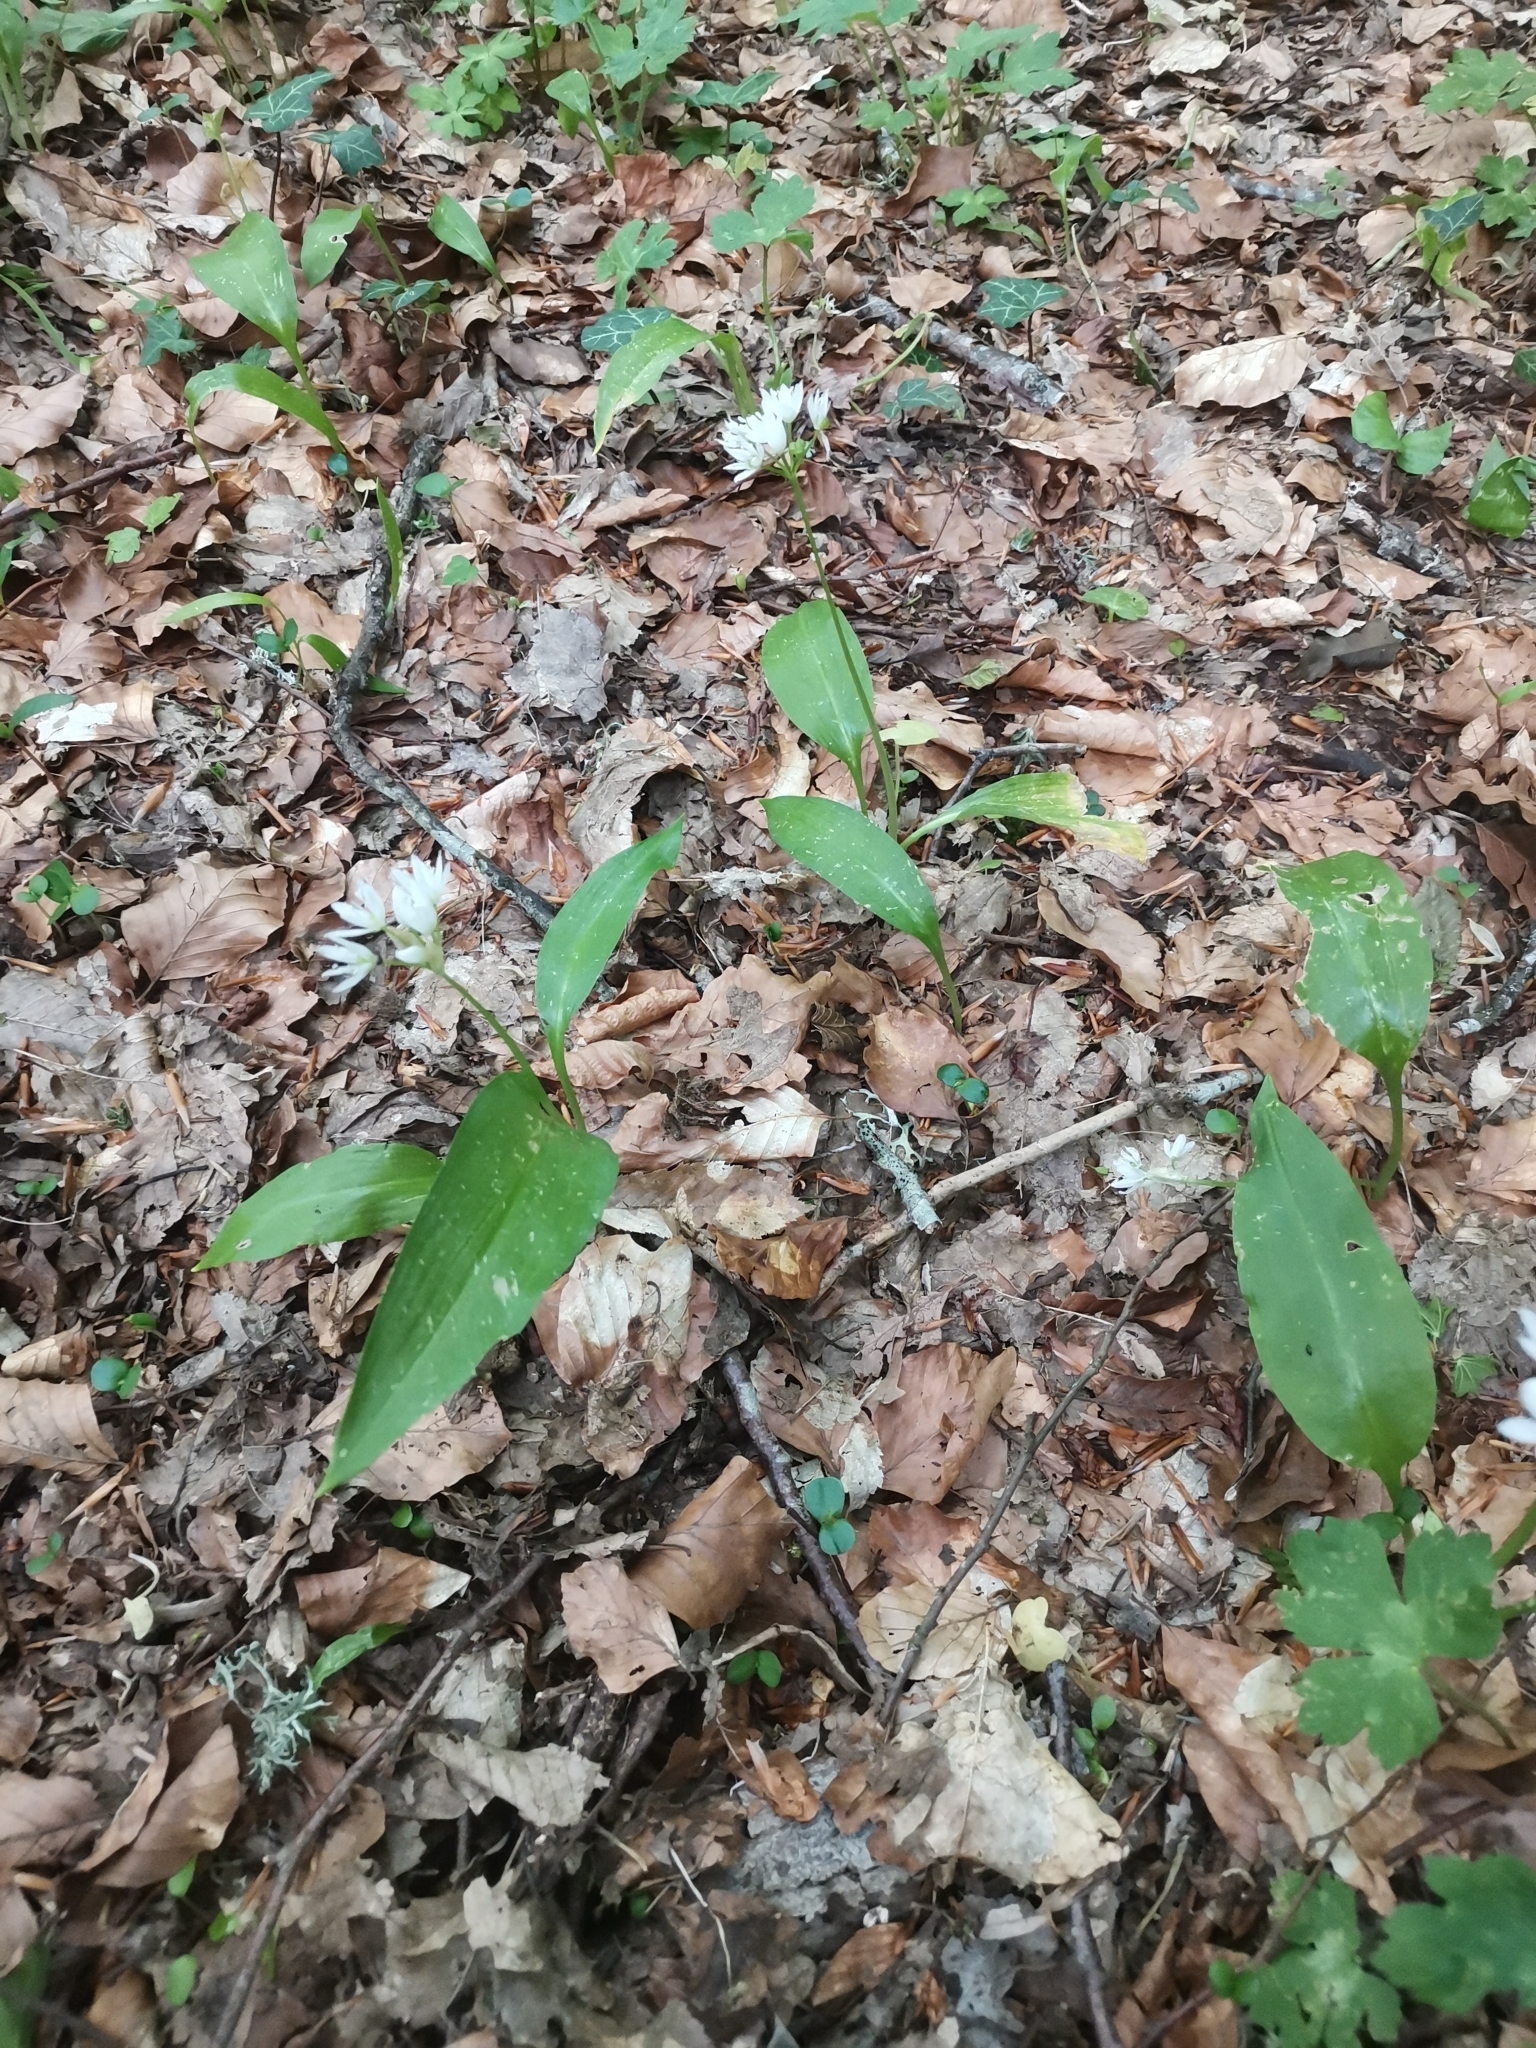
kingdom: Plantae
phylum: Tracheophyta
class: Liliopsida
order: Asparagales
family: Amaryllidaceae
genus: Allium
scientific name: Allium ursinum
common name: Ramsons
